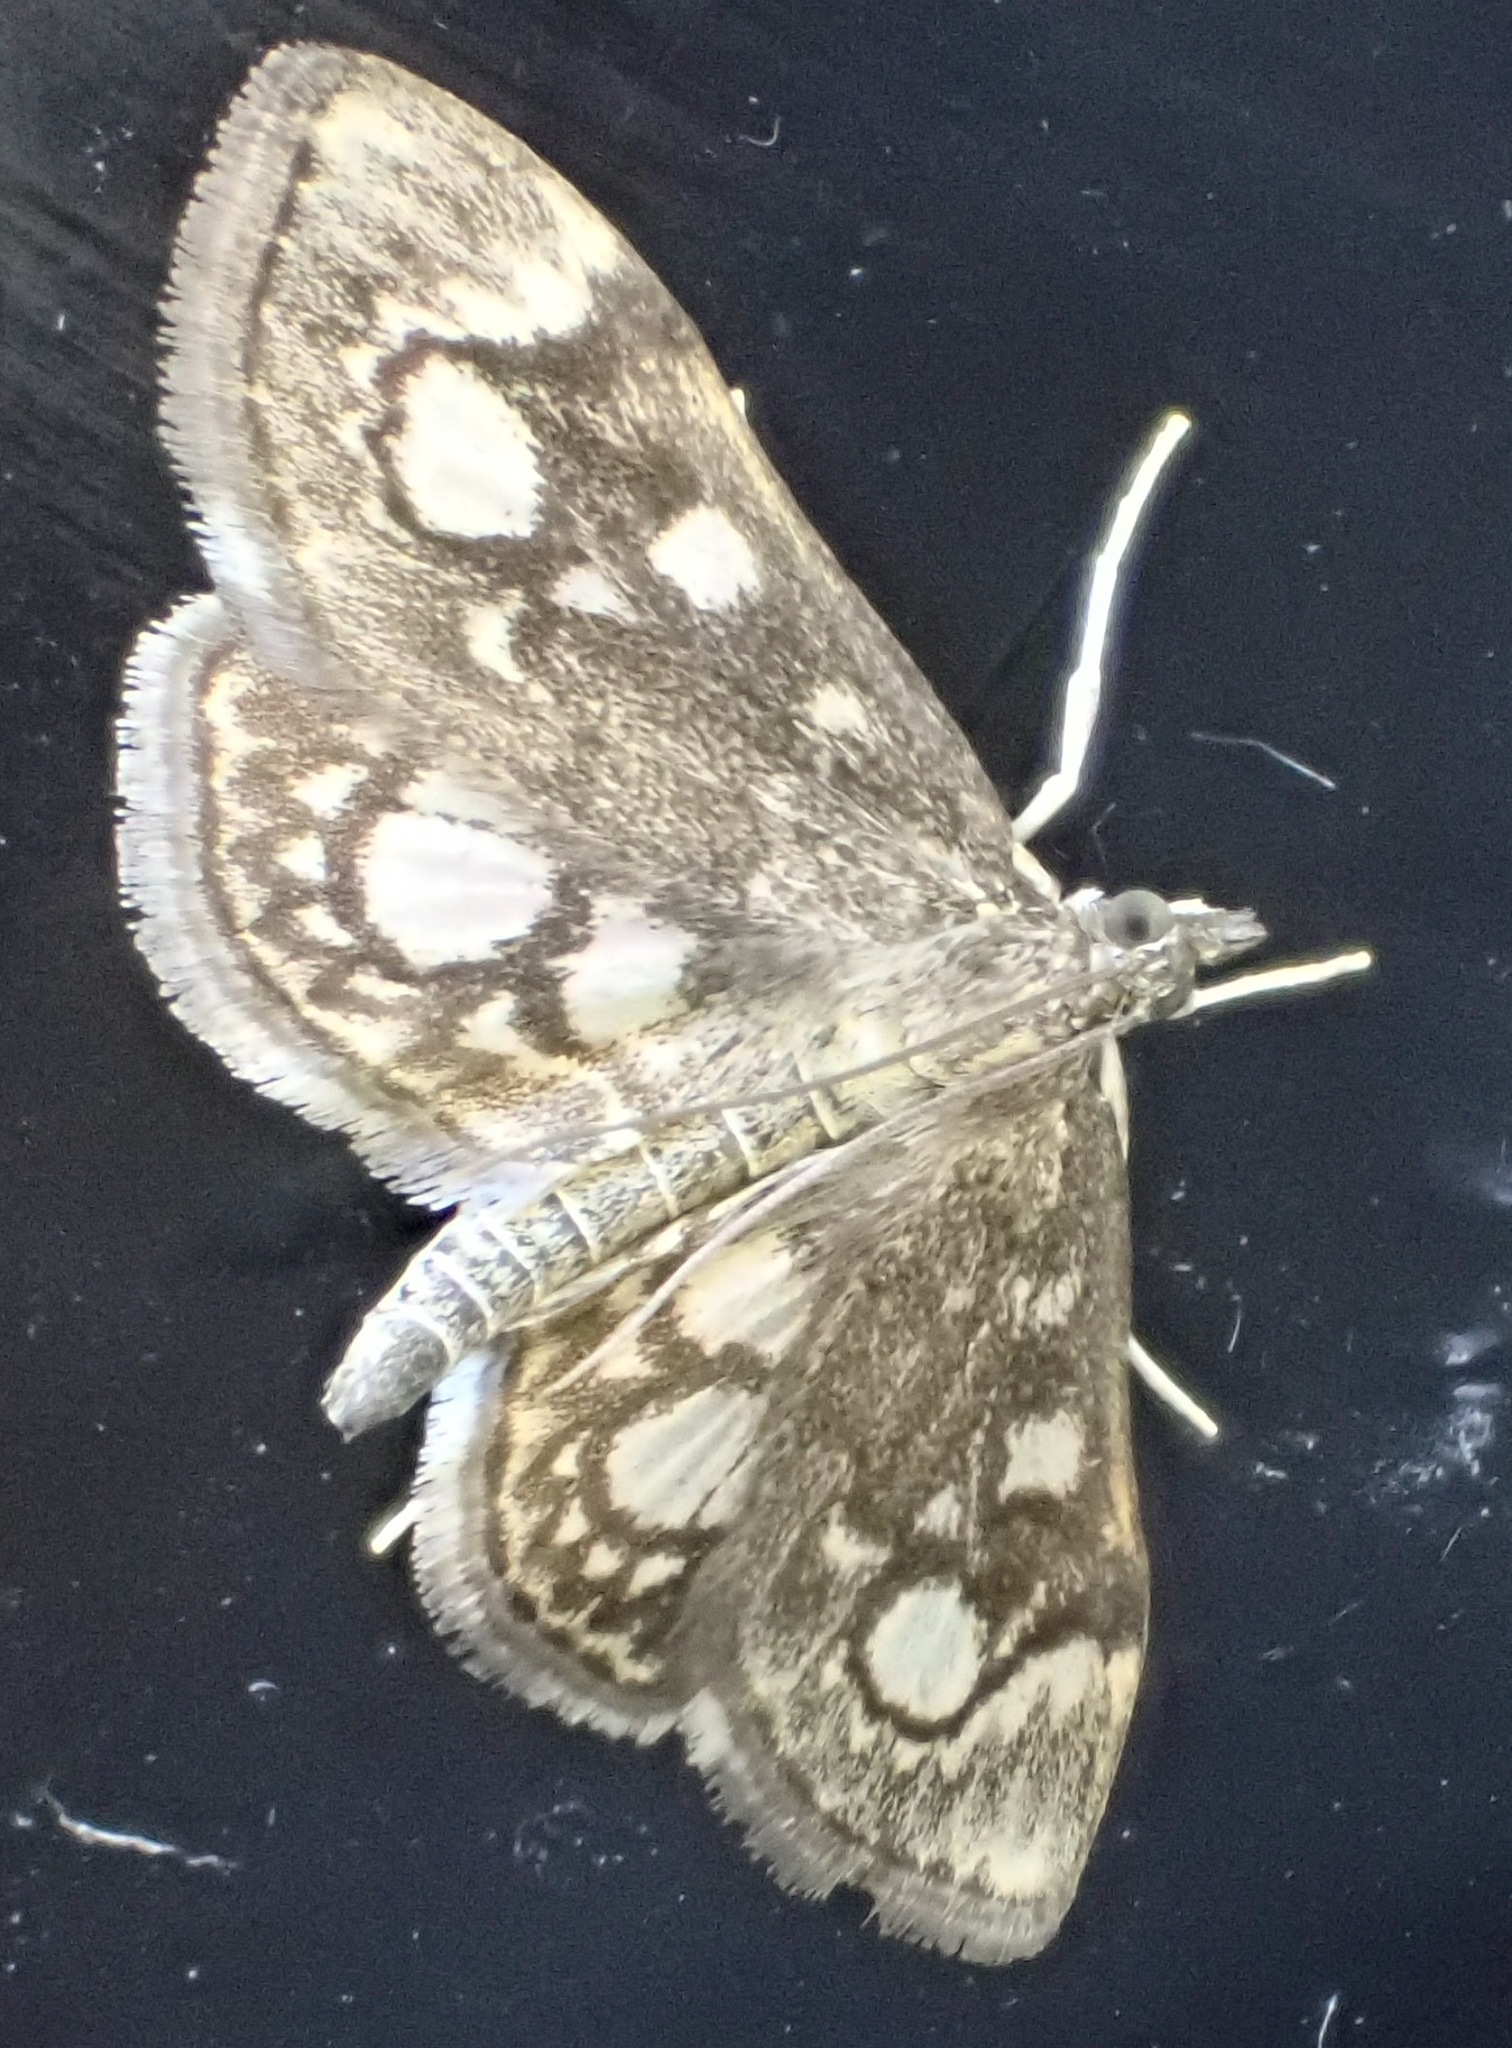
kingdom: Animalia
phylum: Arthropoda
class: Insecta
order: Lepidoptera
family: Crambidae
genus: Anania
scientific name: Anania coronata
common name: Elder pearl
